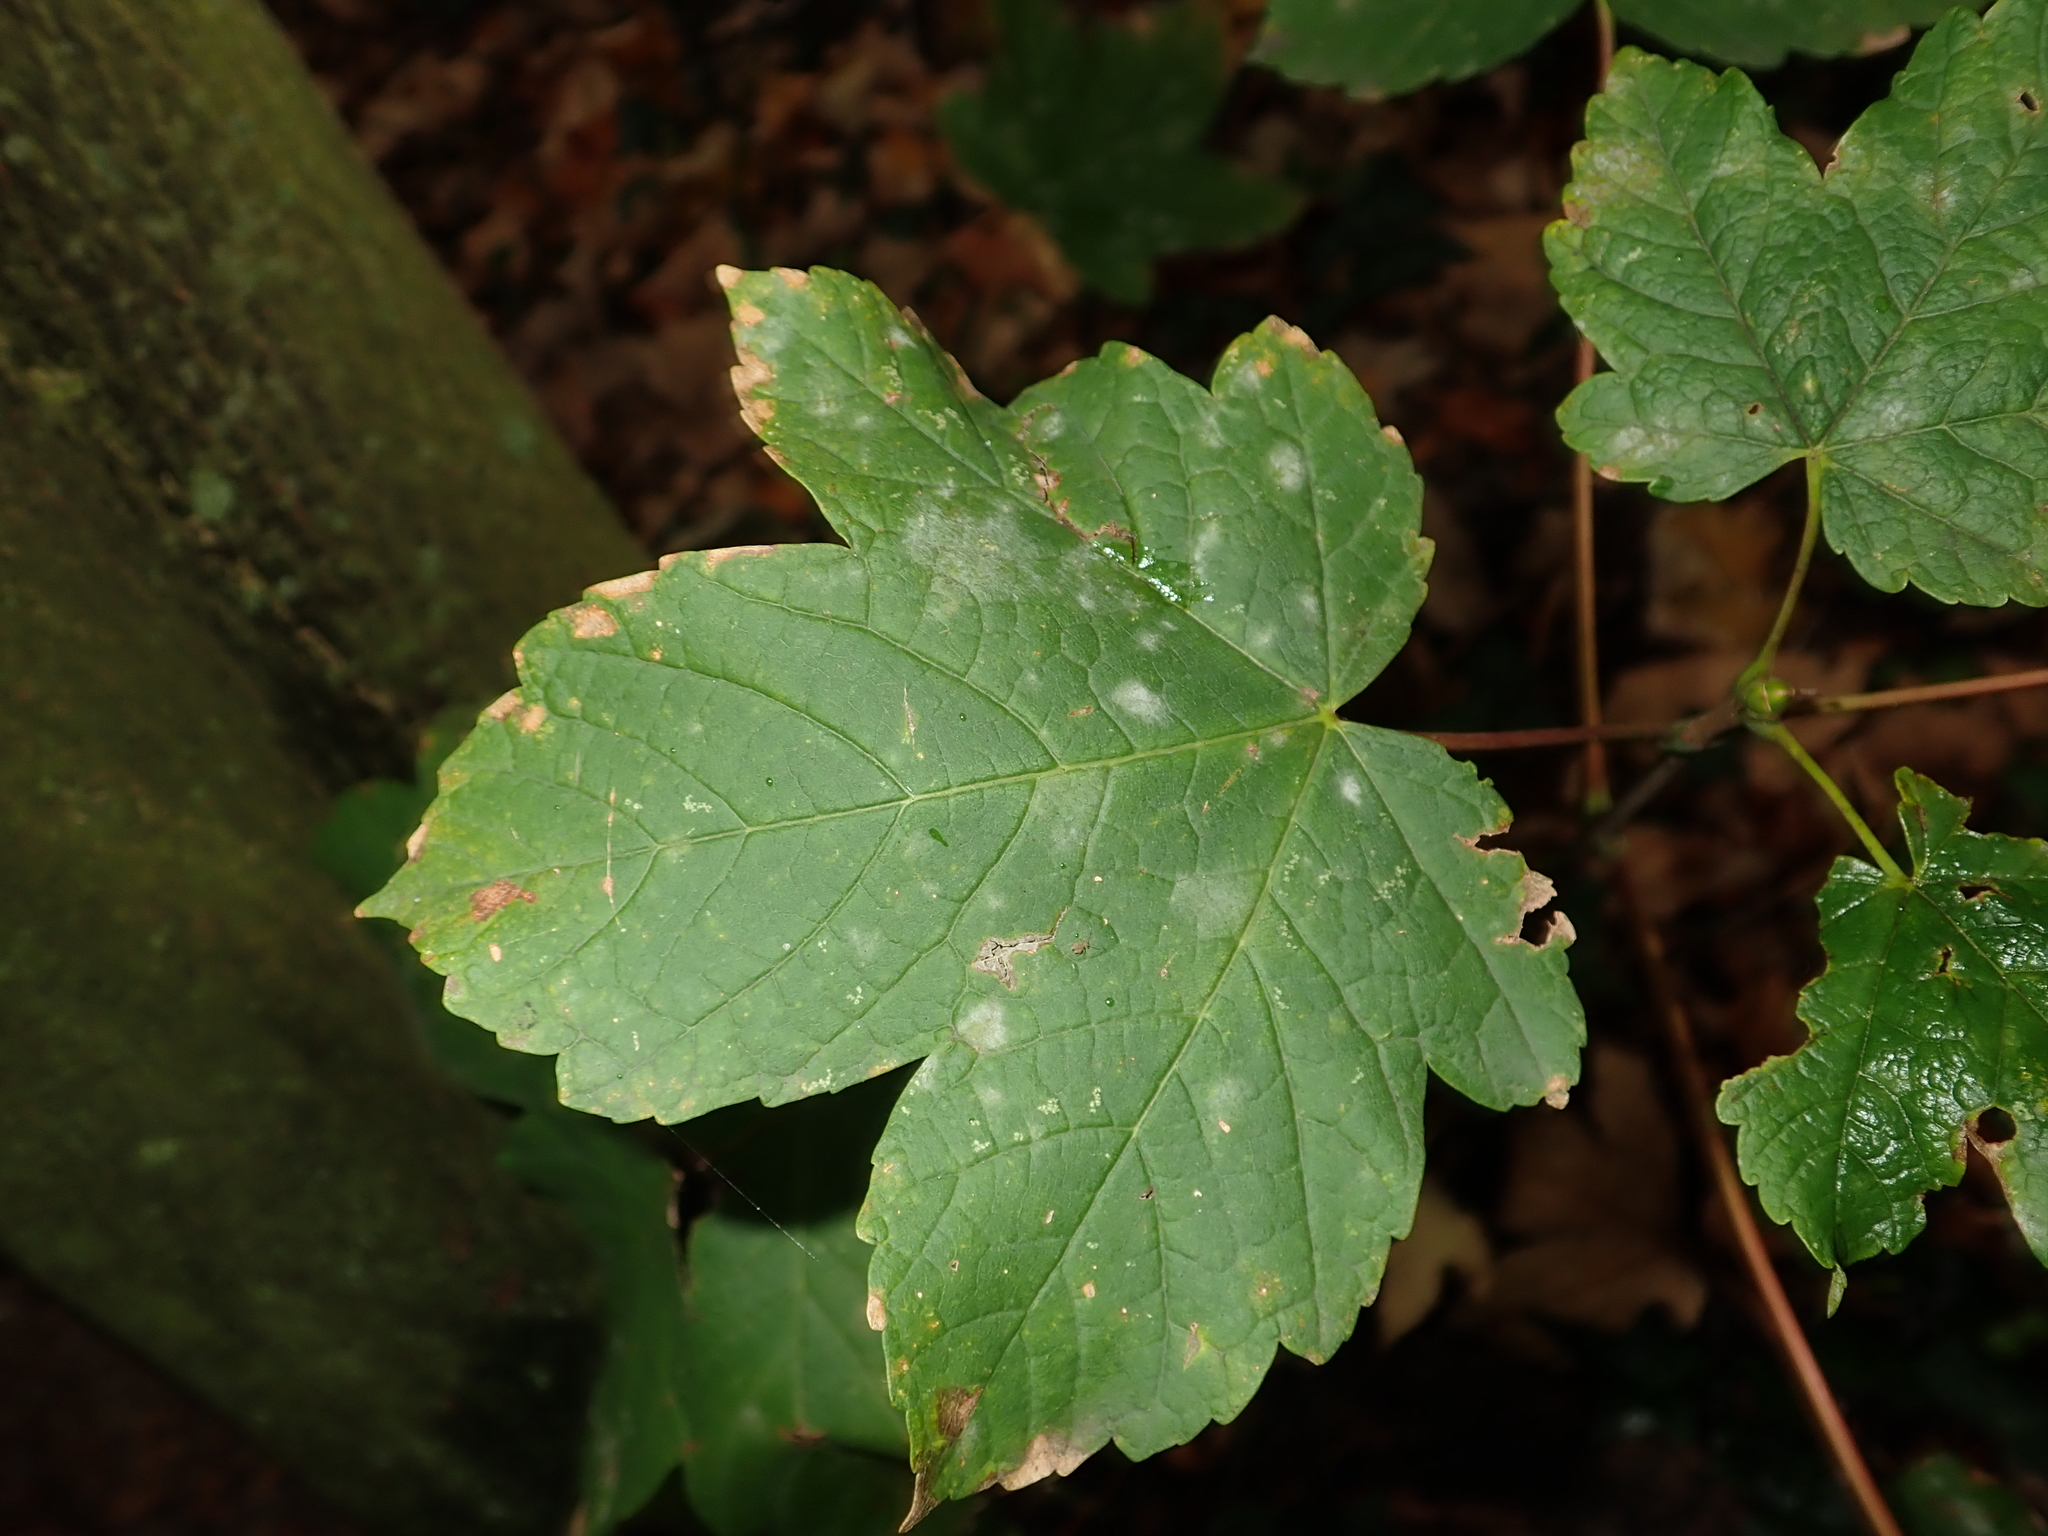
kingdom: Plantae
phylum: Tracheophyta
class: Magnoliopsida
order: Sapindales
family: Sapindaceae
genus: Acer
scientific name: Acer pseudoplatanus
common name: Sycamore
